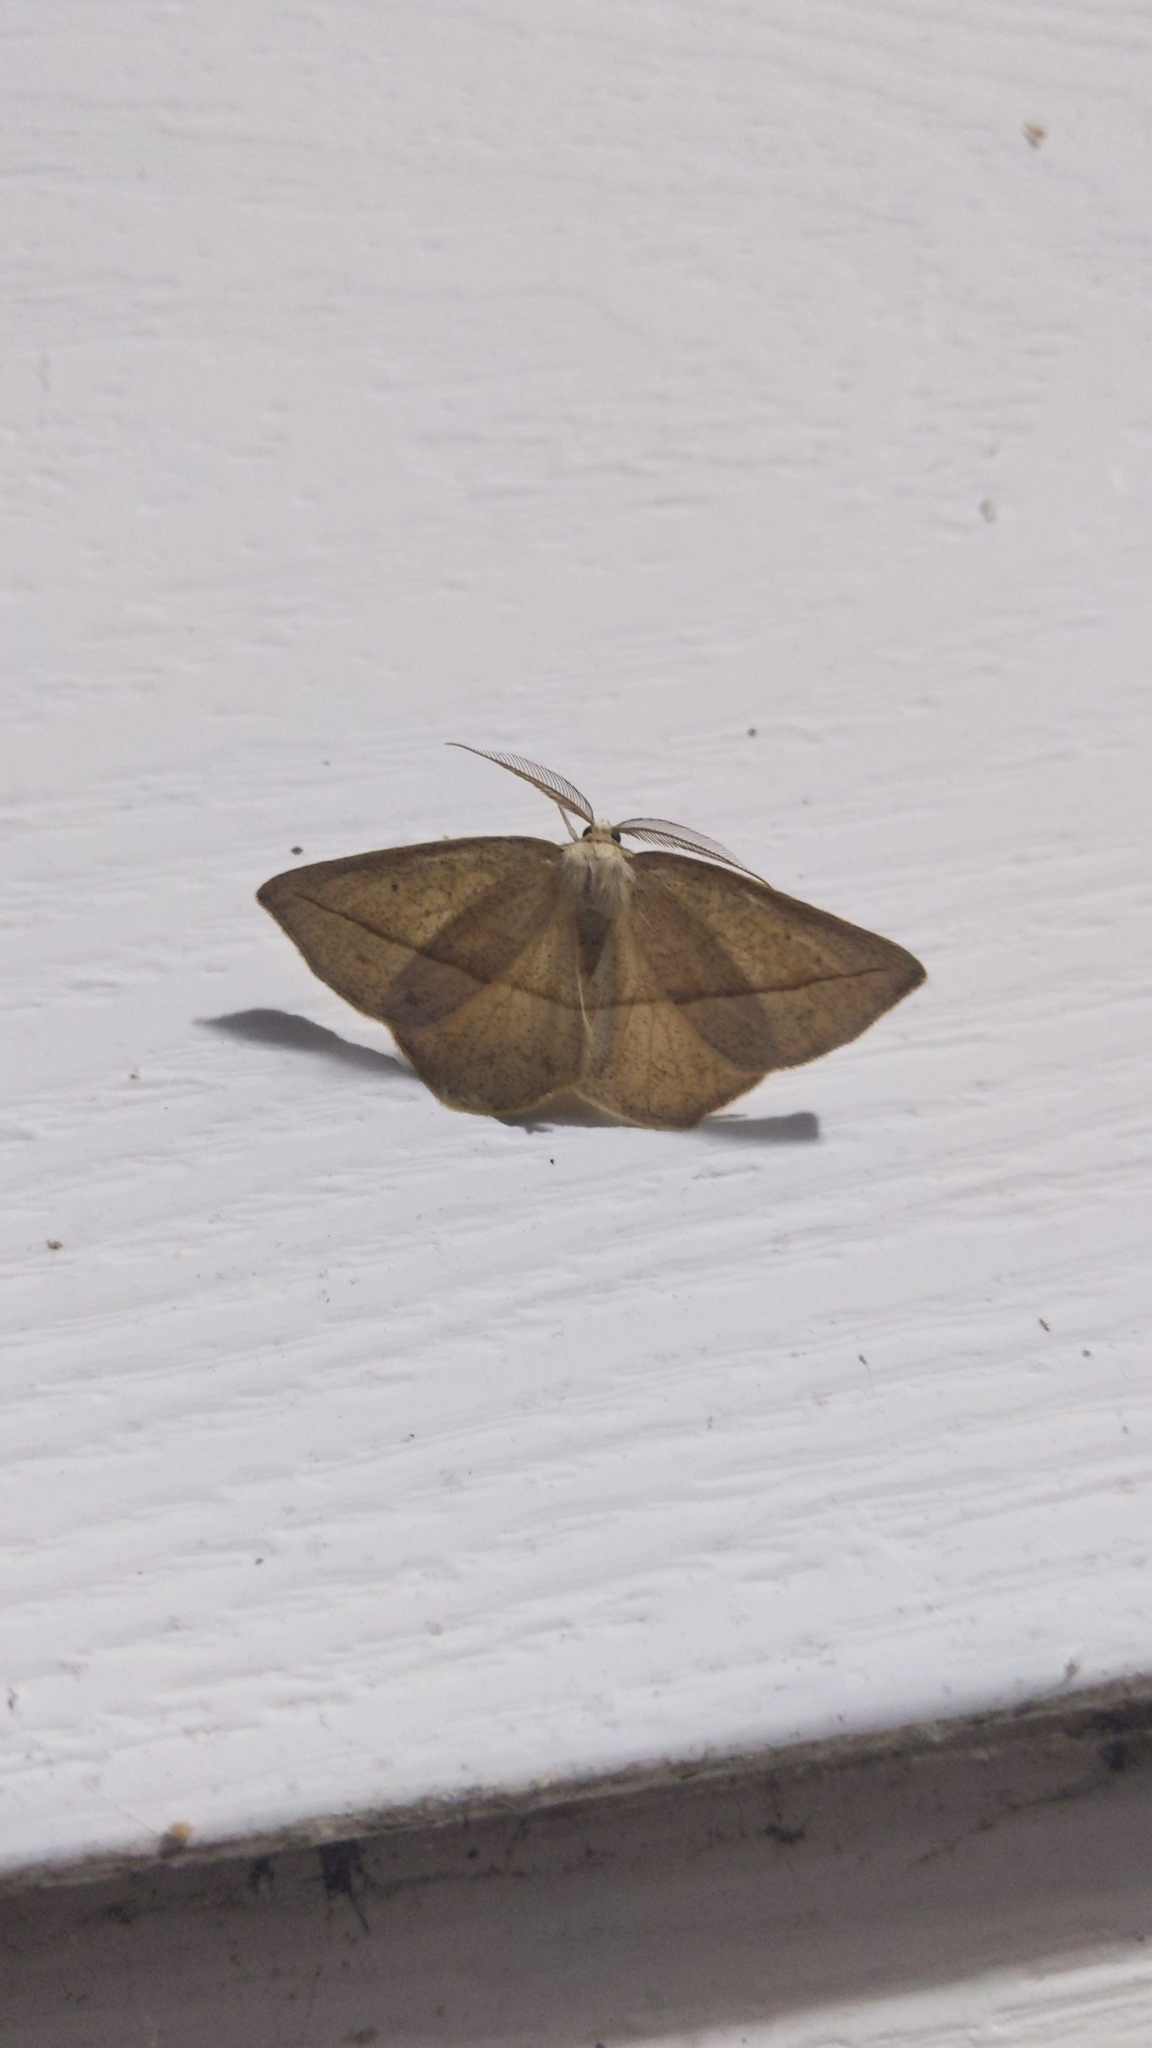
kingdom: Animalia
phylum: Arthropoda
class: Insecta
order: Lepidoptera
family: Geometridae
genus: Eusarca
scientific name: Eusarca confusaria
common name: Confused eusarca
